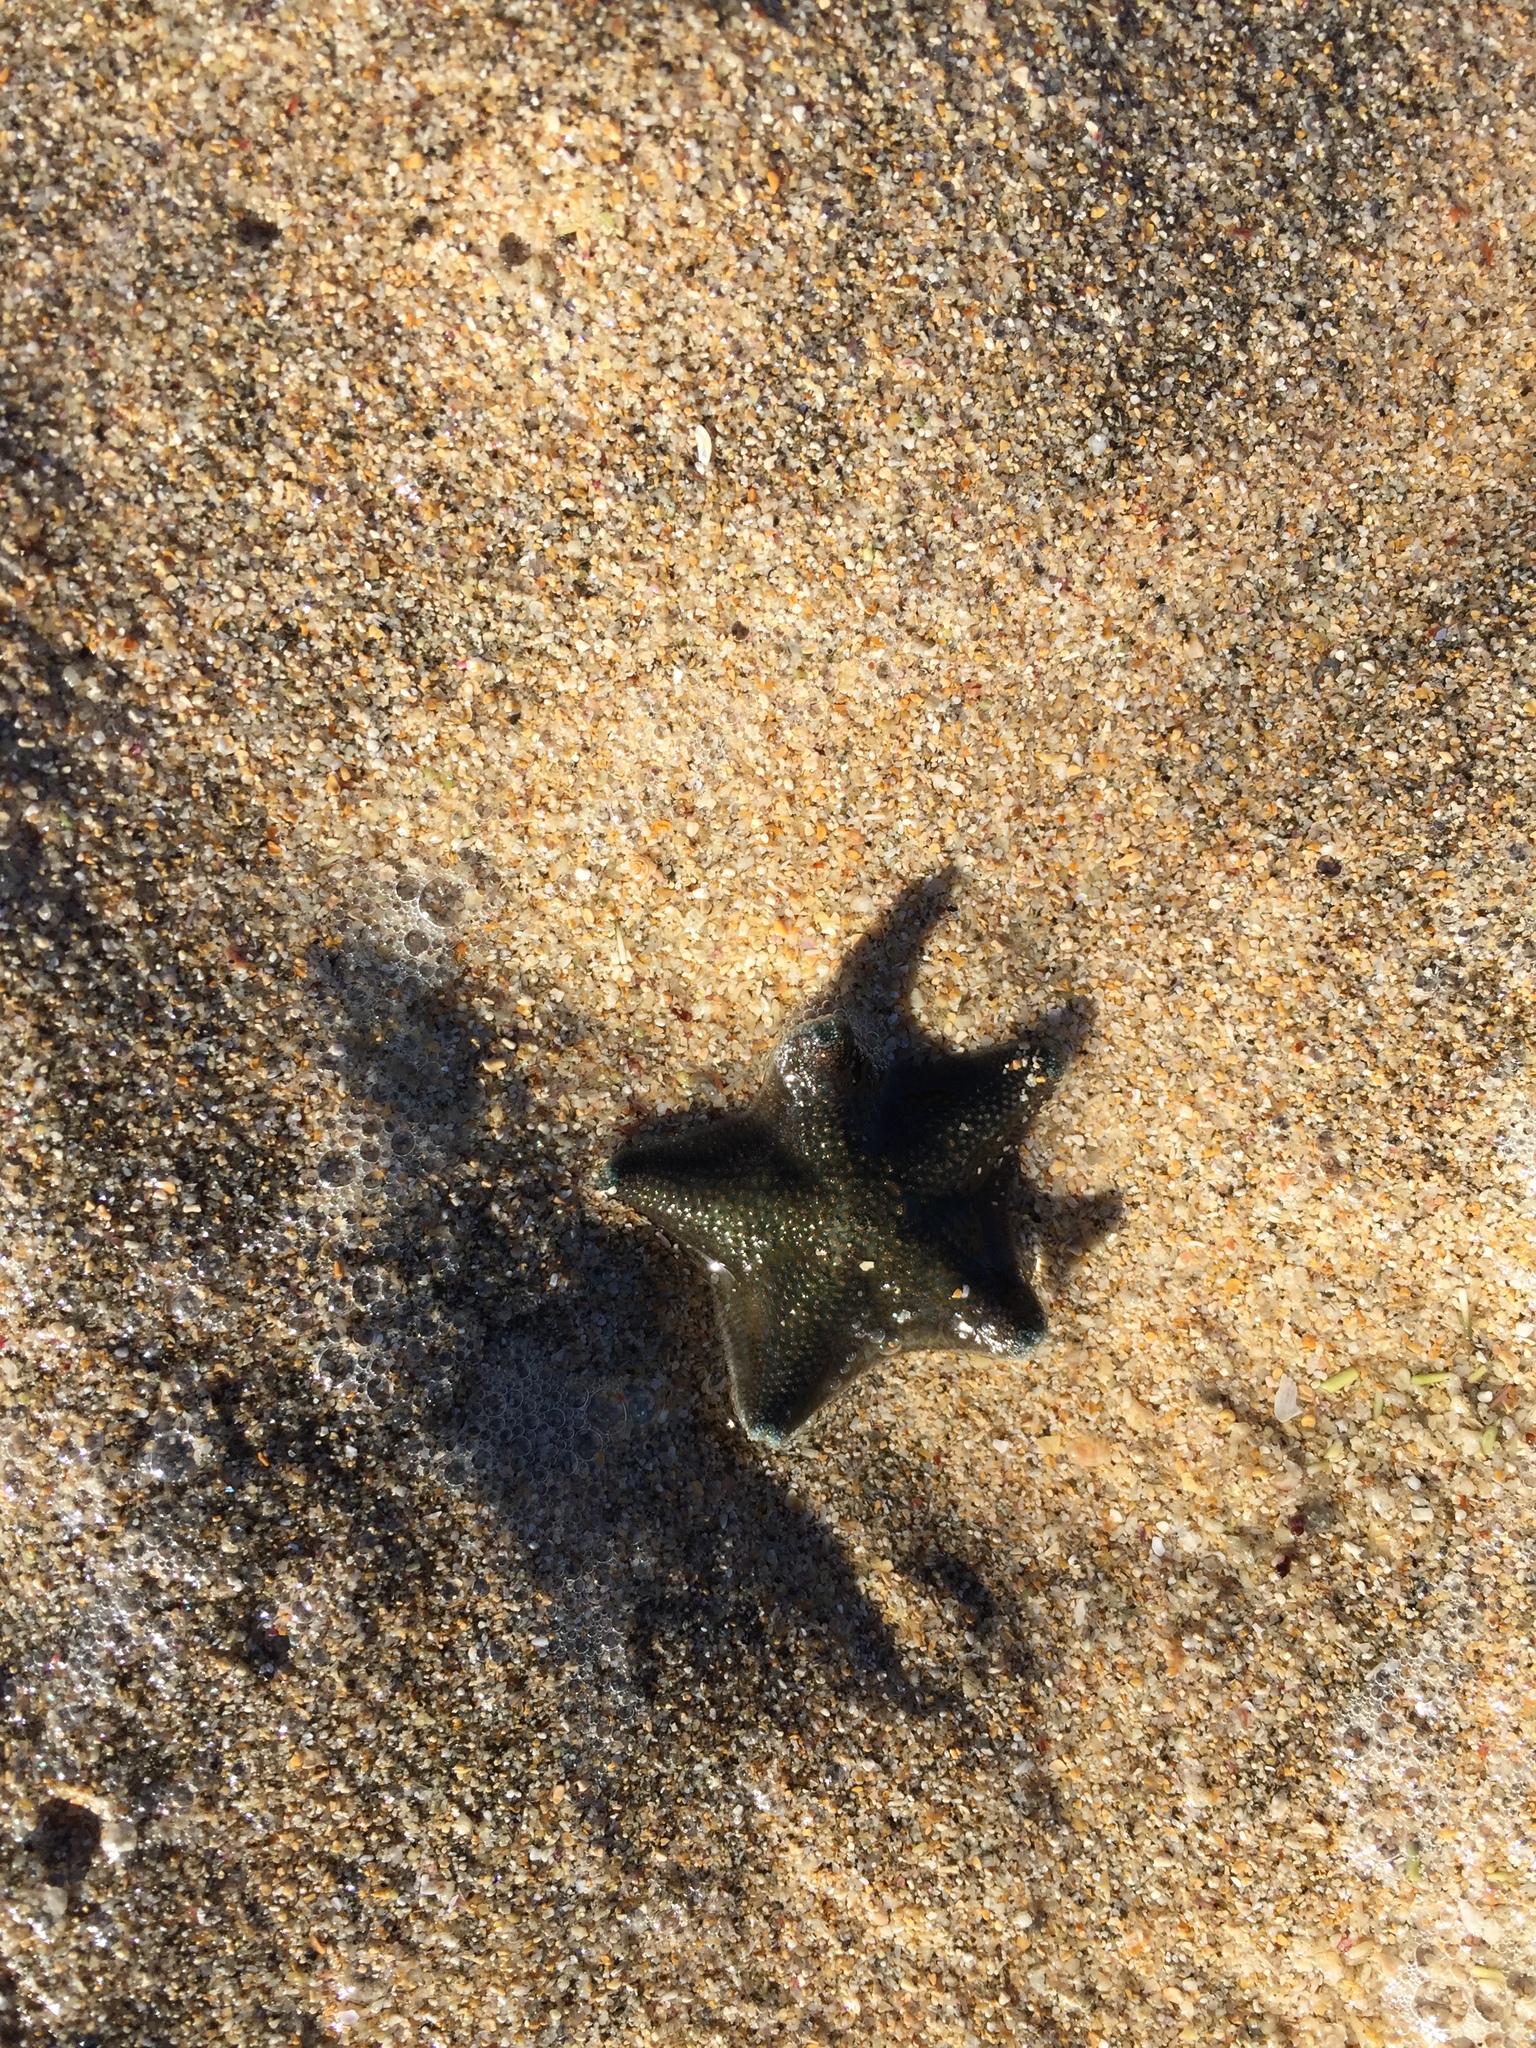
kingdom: Animalia
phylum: Echinodermata
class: Asteroidea
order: Valvatida
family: Asterinidae
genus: Patiriella
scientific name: Patiriella regularis
